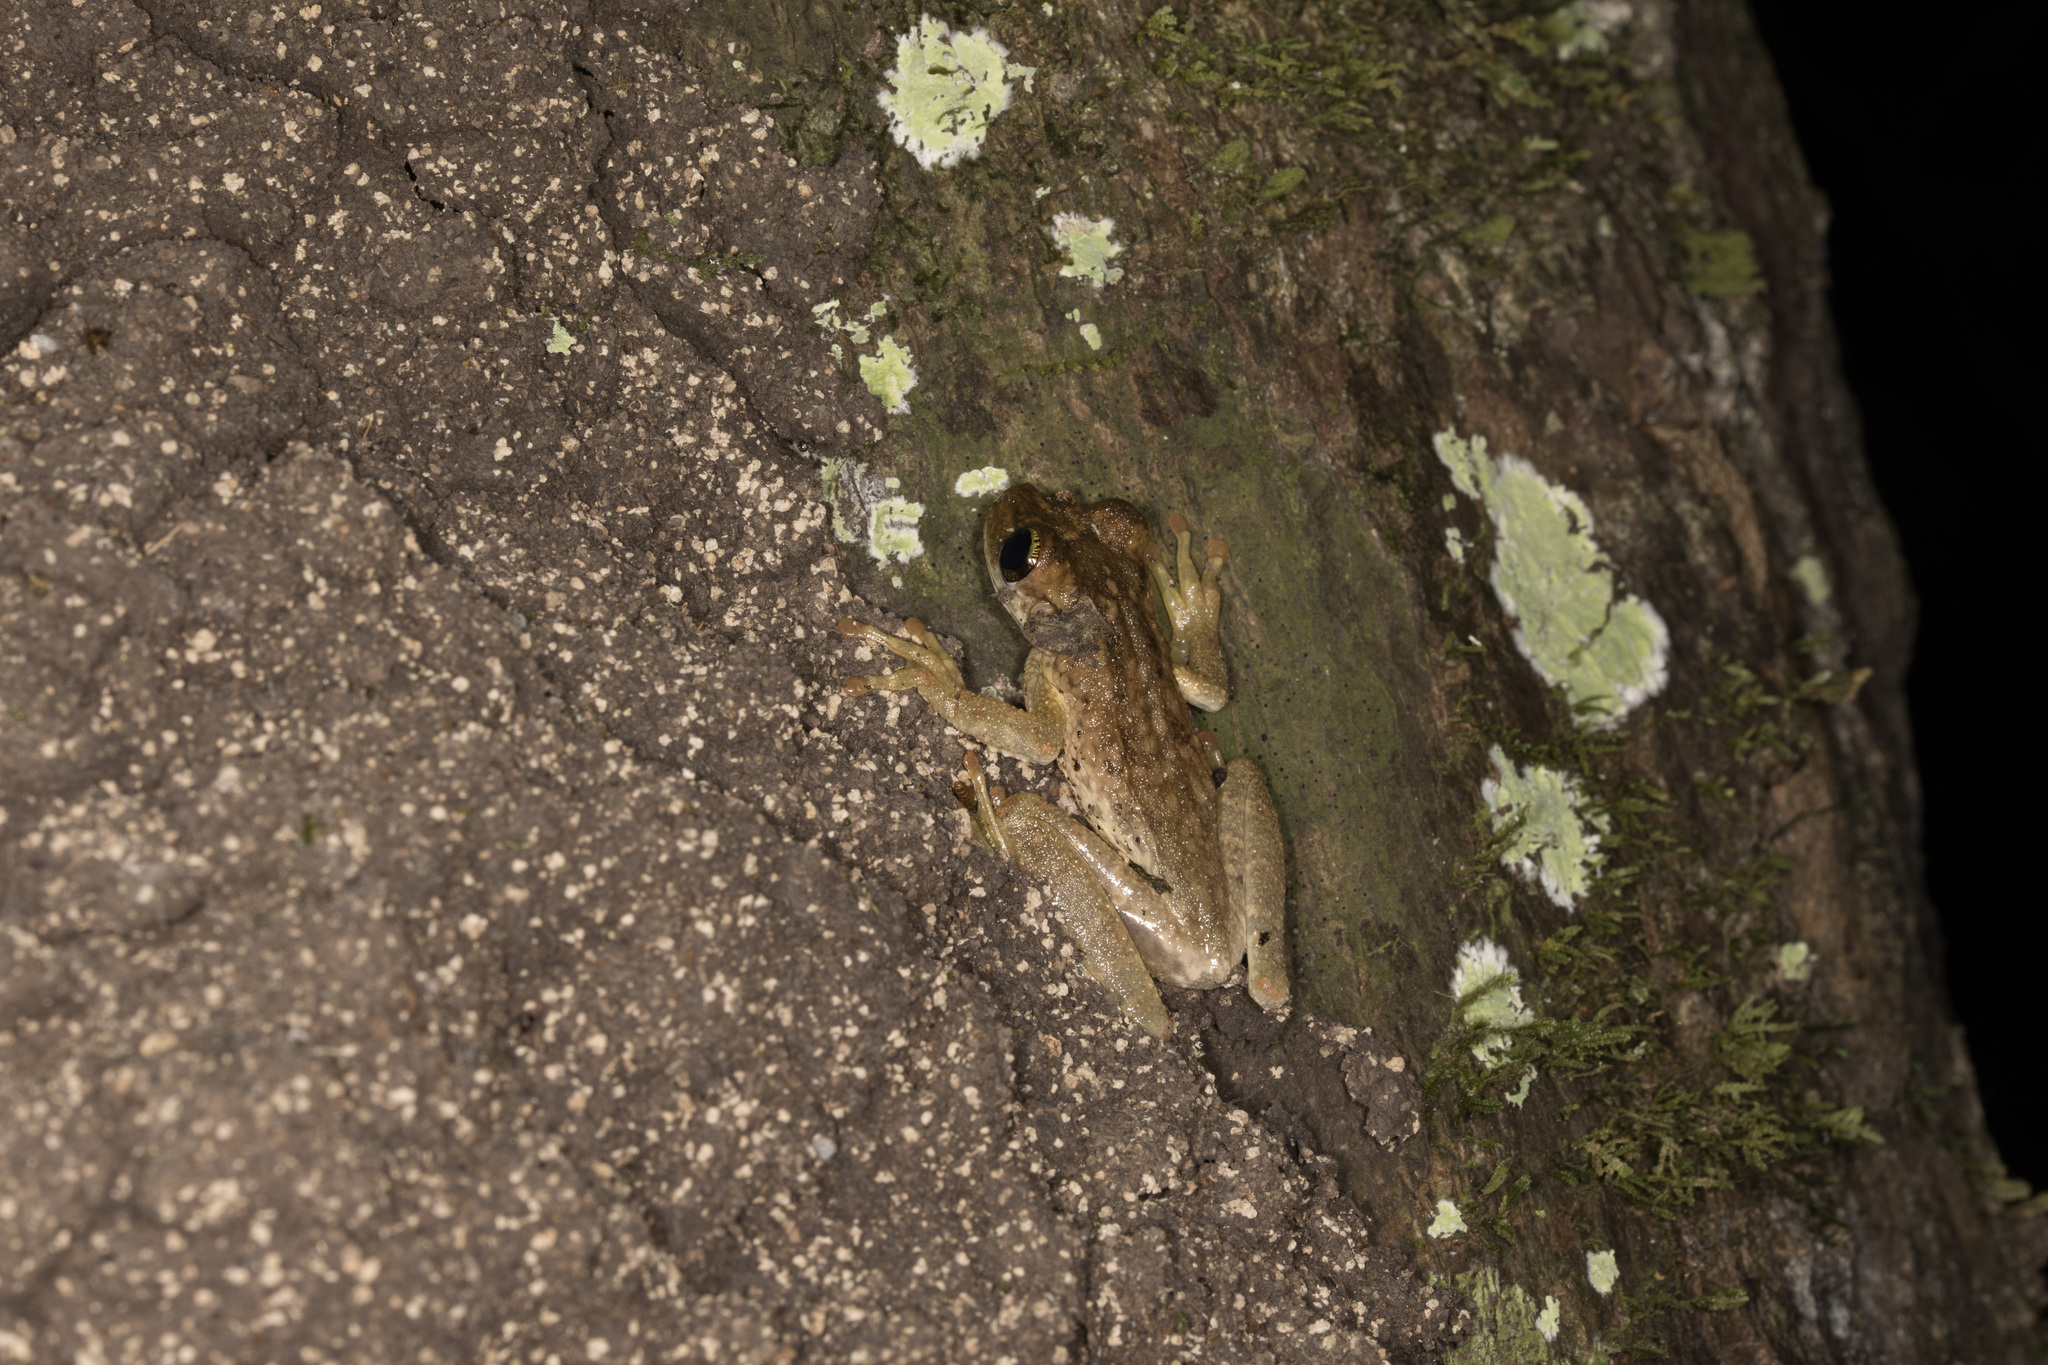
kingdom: Animalia
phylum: Chordata
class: Amphibia
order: Anura
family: Hylidae
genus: Osteocephalus
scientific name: Osteocephalus taurinus
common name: Manaus slender-legged treefrog
